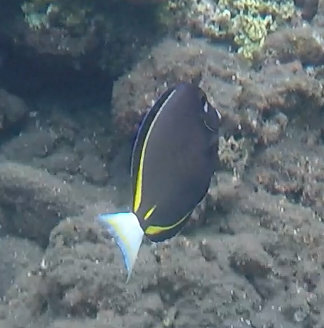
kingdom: Animalia
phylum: Chordata
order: Perciformes
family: Acanthuridae
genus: Acanthurus
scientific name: Acanthurus nigricans
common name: Whitecheek surgeonfish
